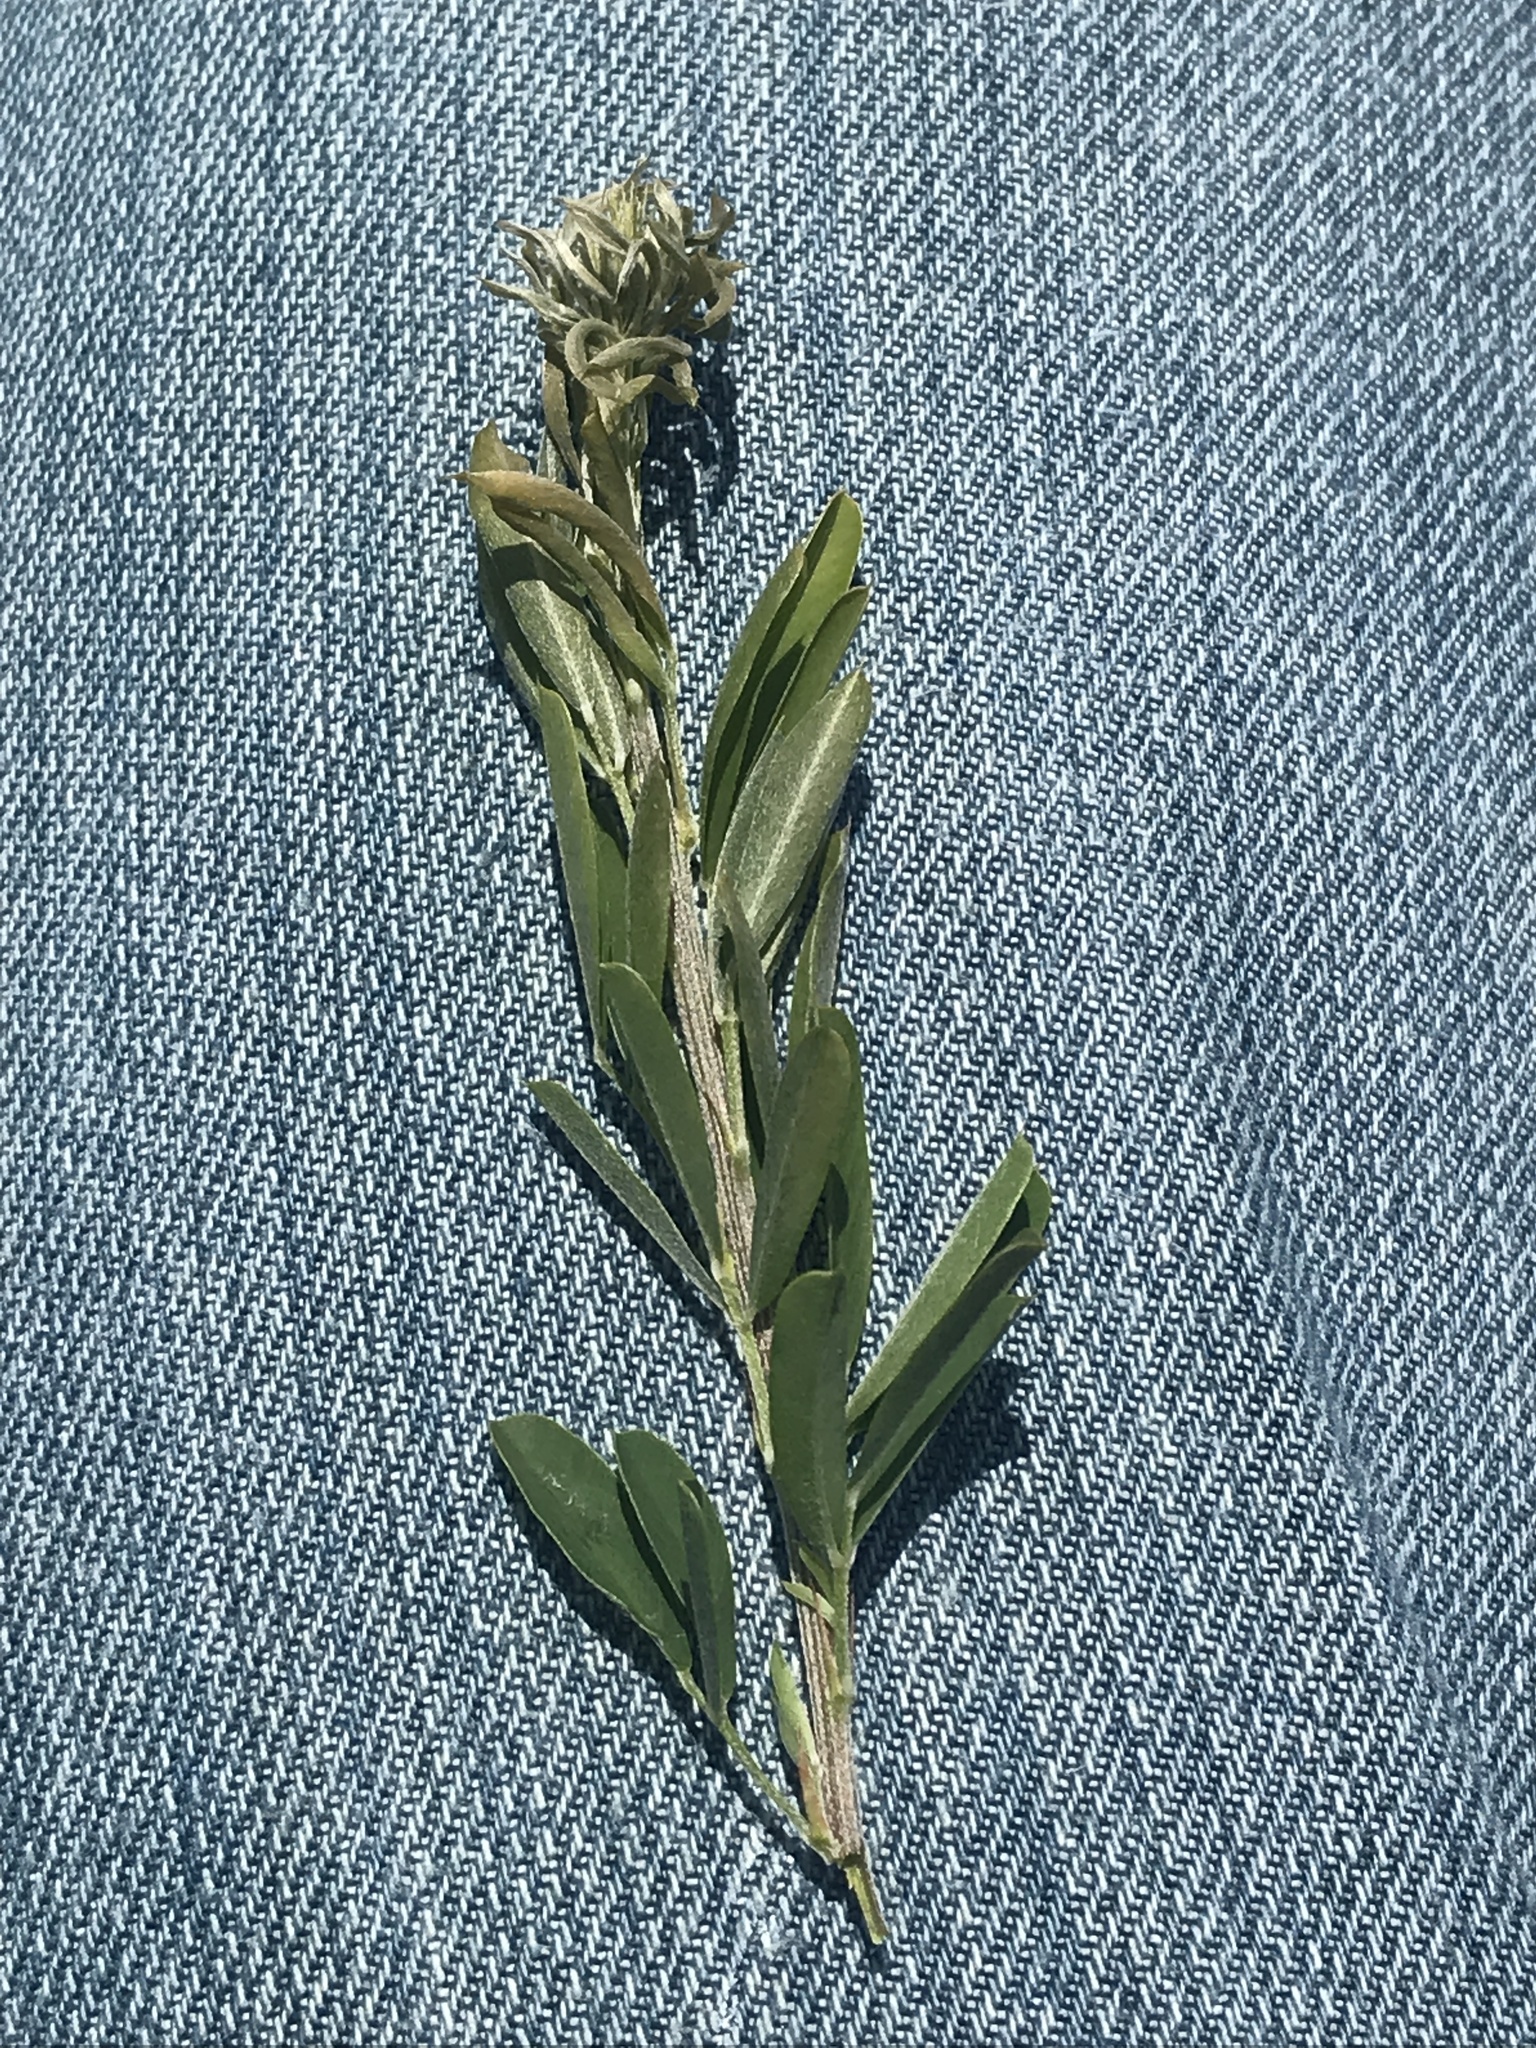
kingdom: Plantae
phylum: Tracheophyta
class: Magnoliopsida
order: Fabales
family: Fabaceae
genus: Lespedeza
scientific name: Lespedeza cuneata
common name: Chinese bush-clover
